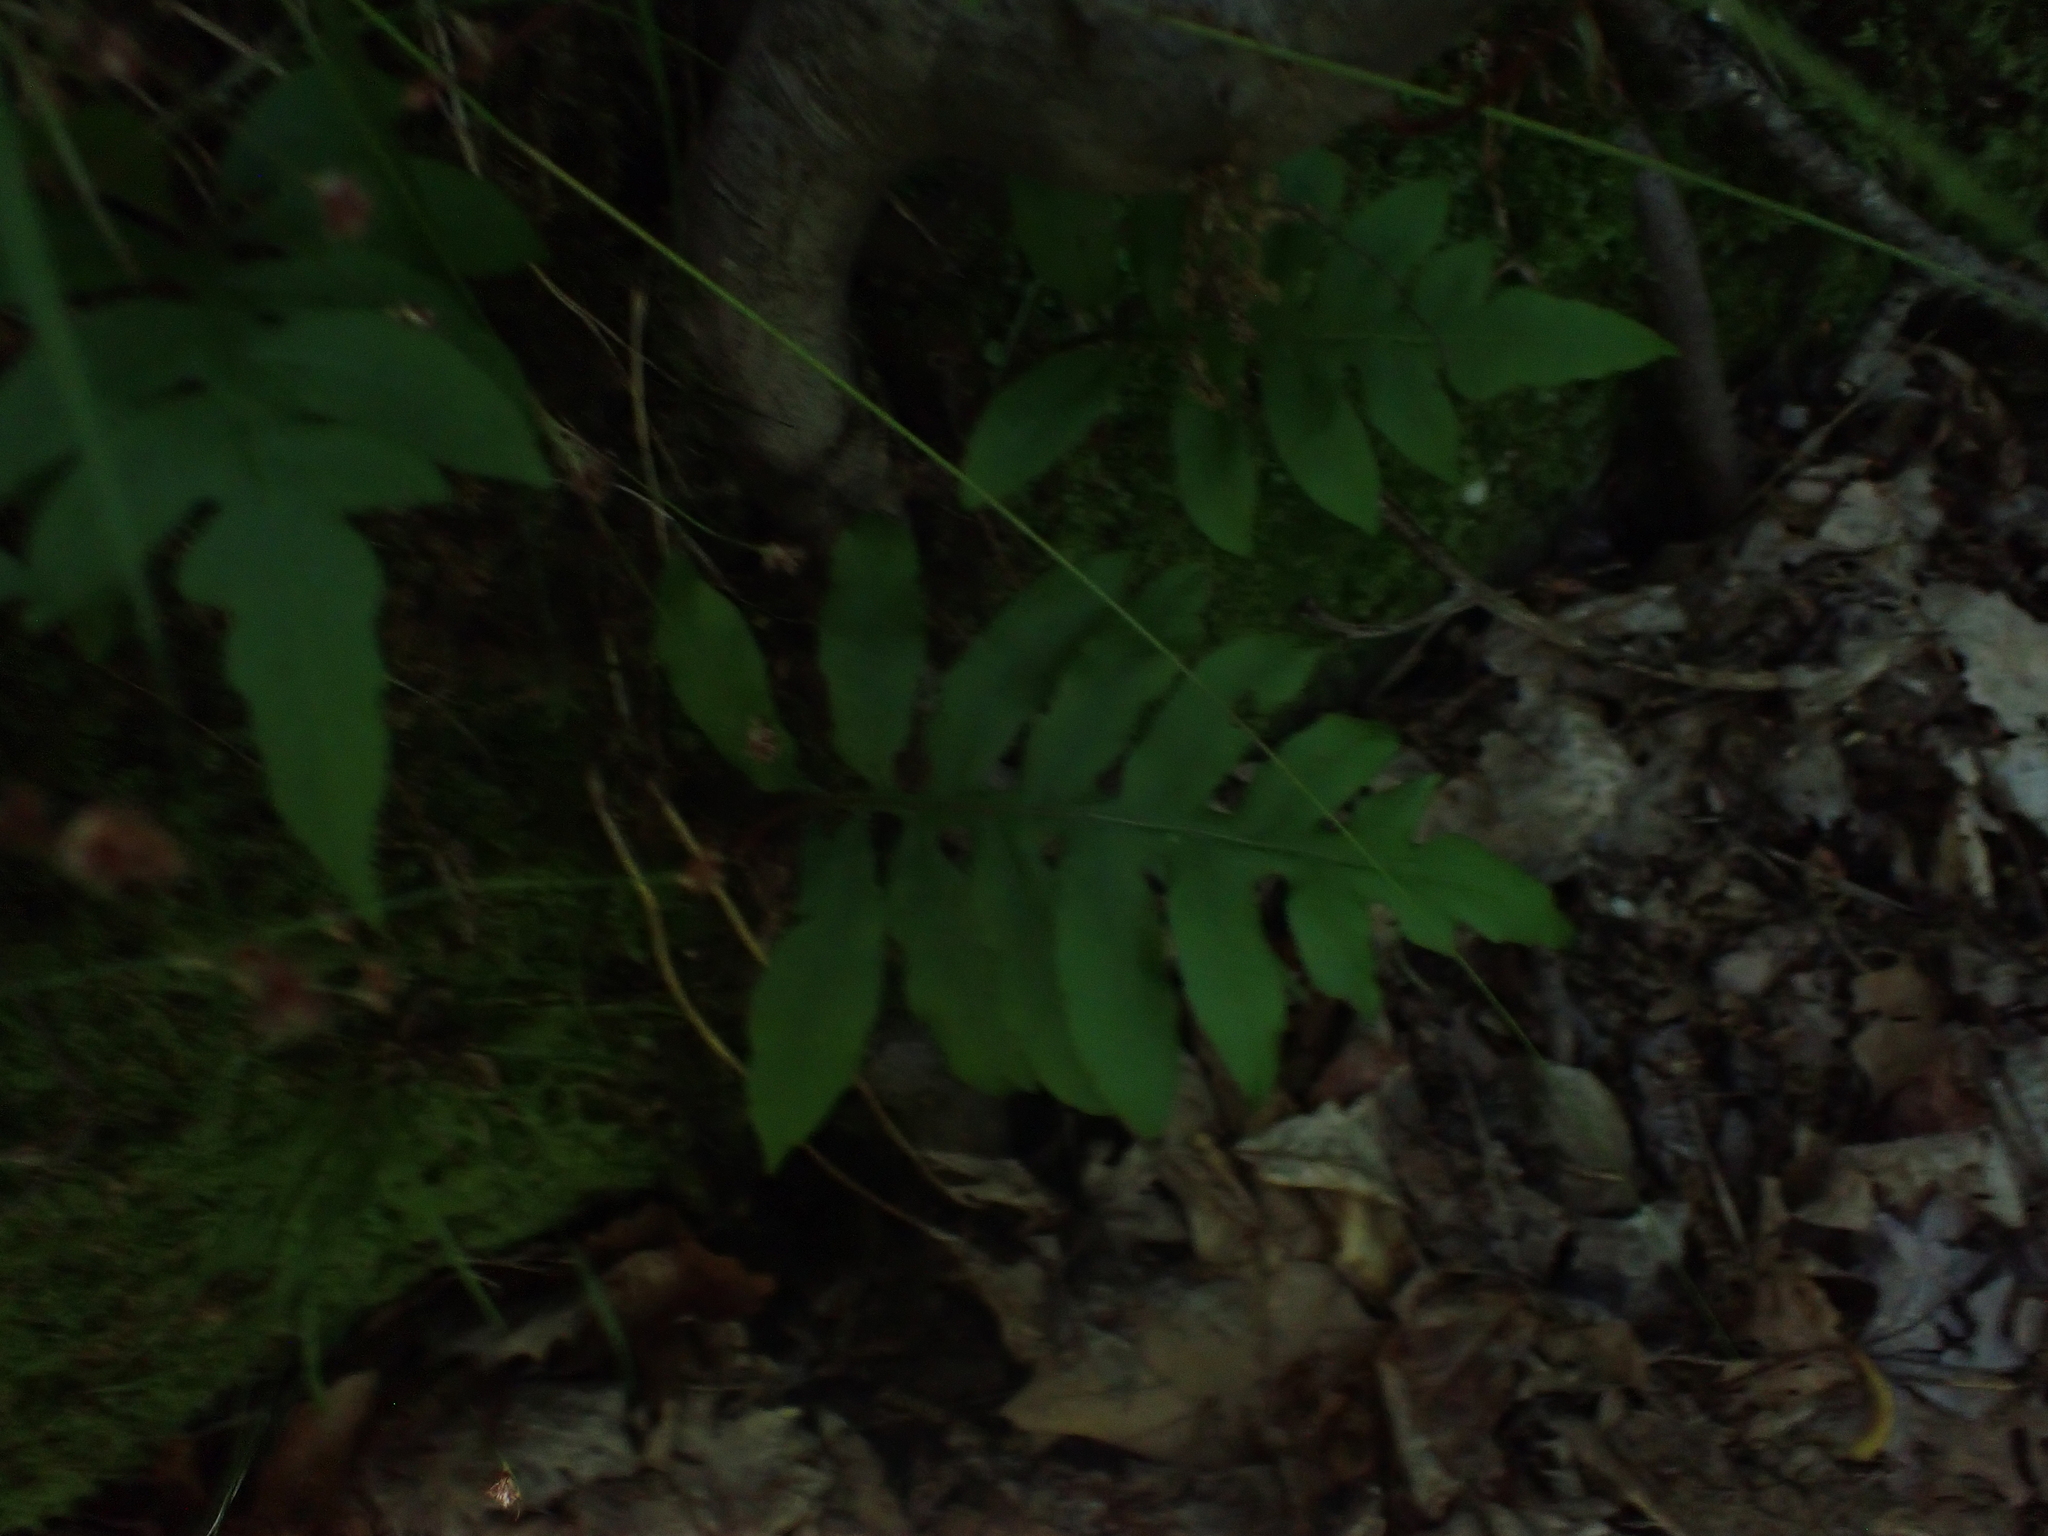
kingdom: Plantae
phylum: Tracheophyta
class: Polypodiopsida
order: Polypodiales
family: Blechnaceae
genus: Lorinseria
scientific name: Lorinseria areolata
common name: Dwarf chain fern
